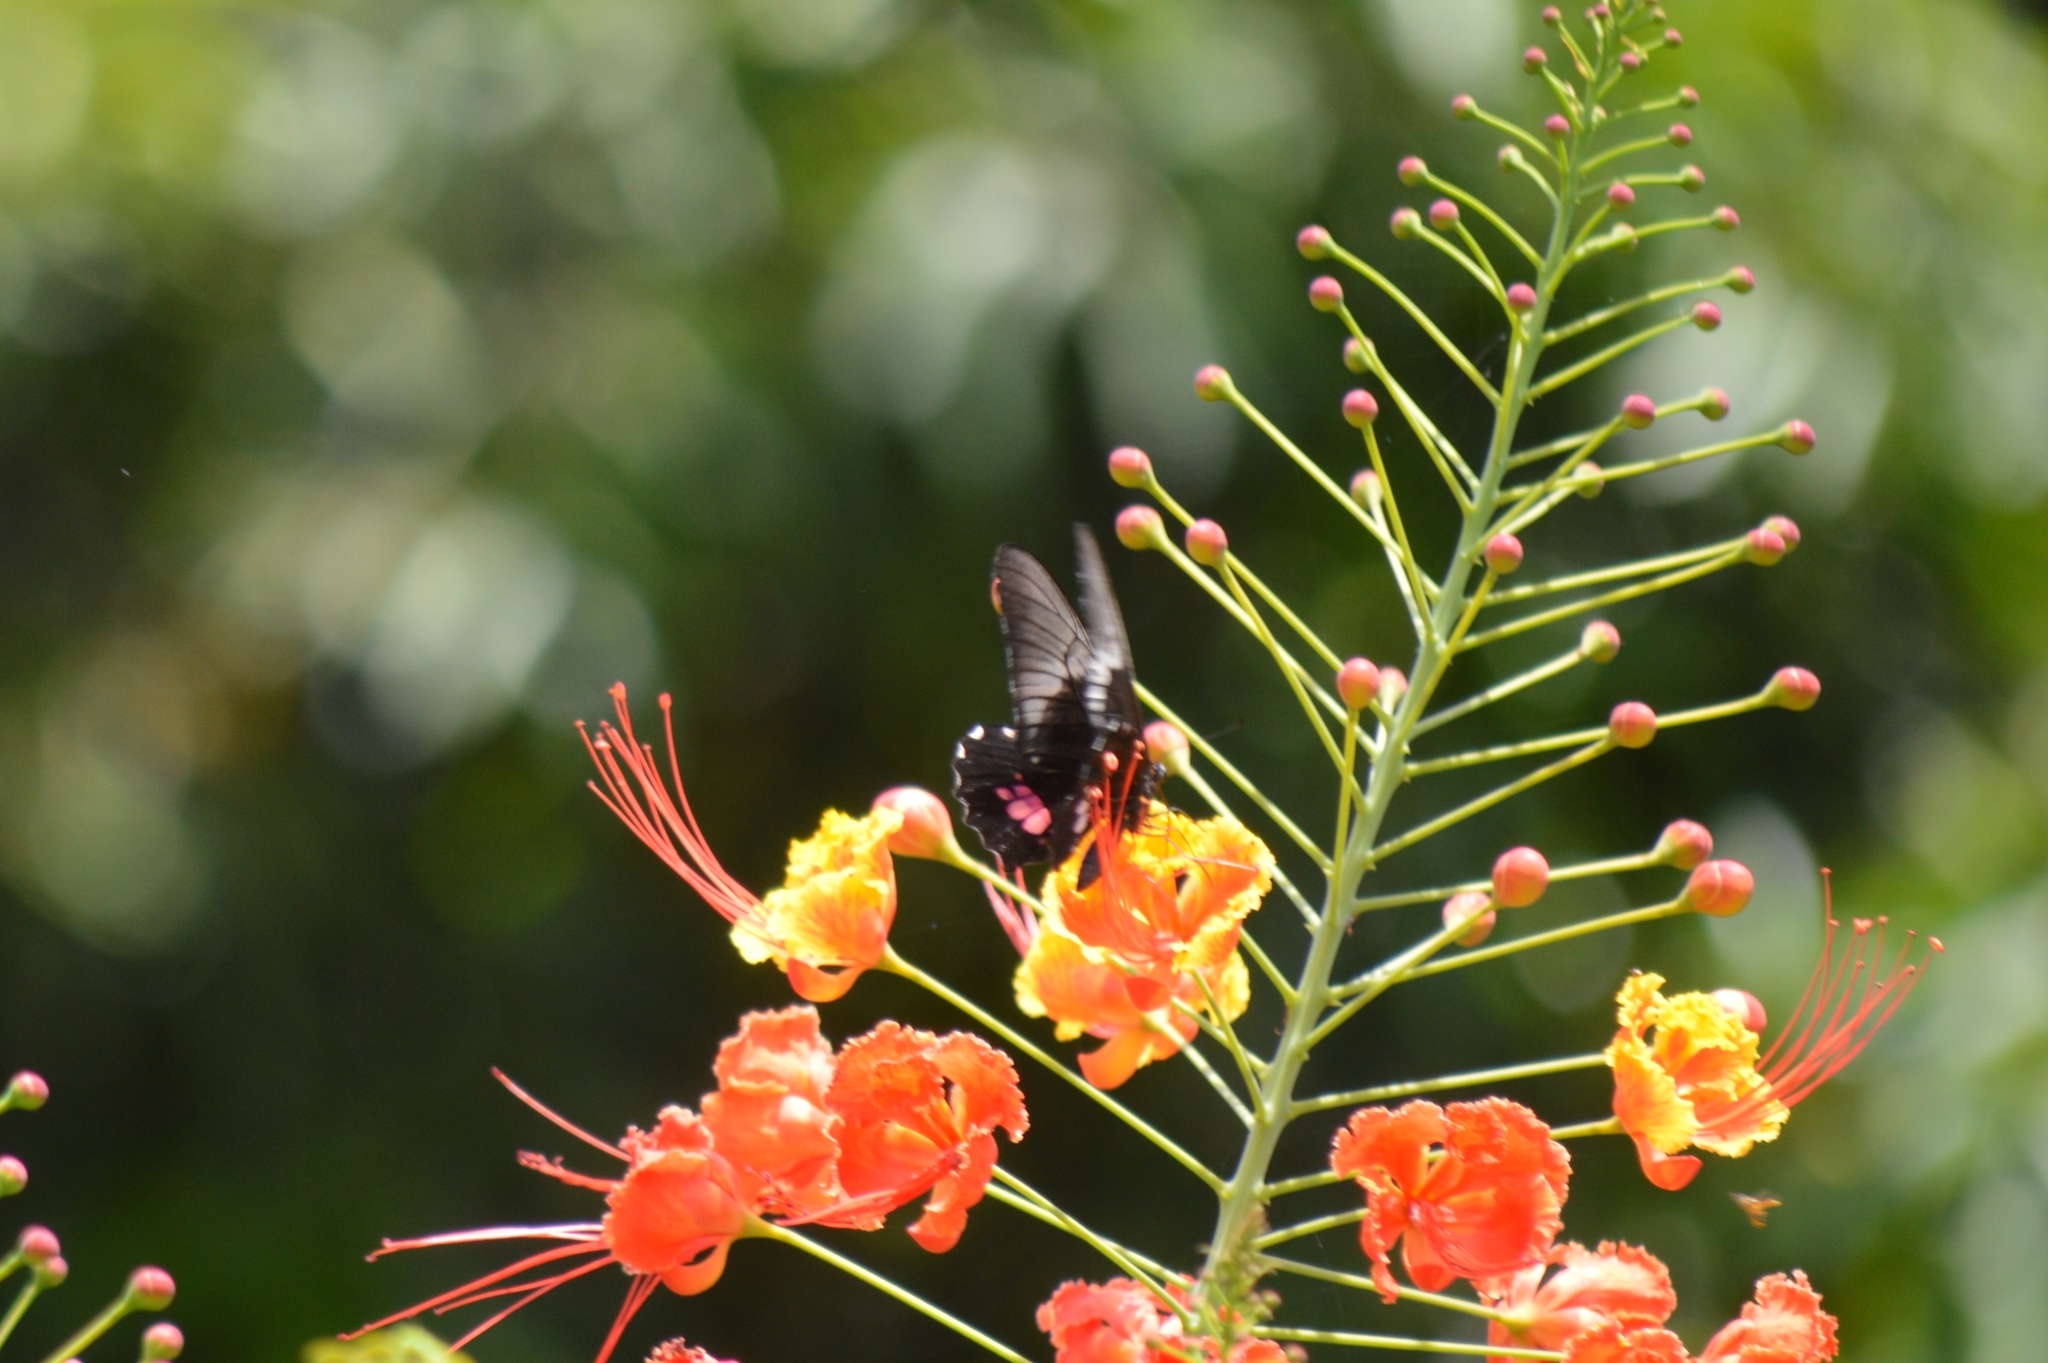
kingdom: Animalia
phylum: Arthropoda
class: Insecta
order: Lepidoptera
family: Papilionidae
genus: Papilio
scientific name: Papilio anchisiades
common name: Idaes swallowtail
